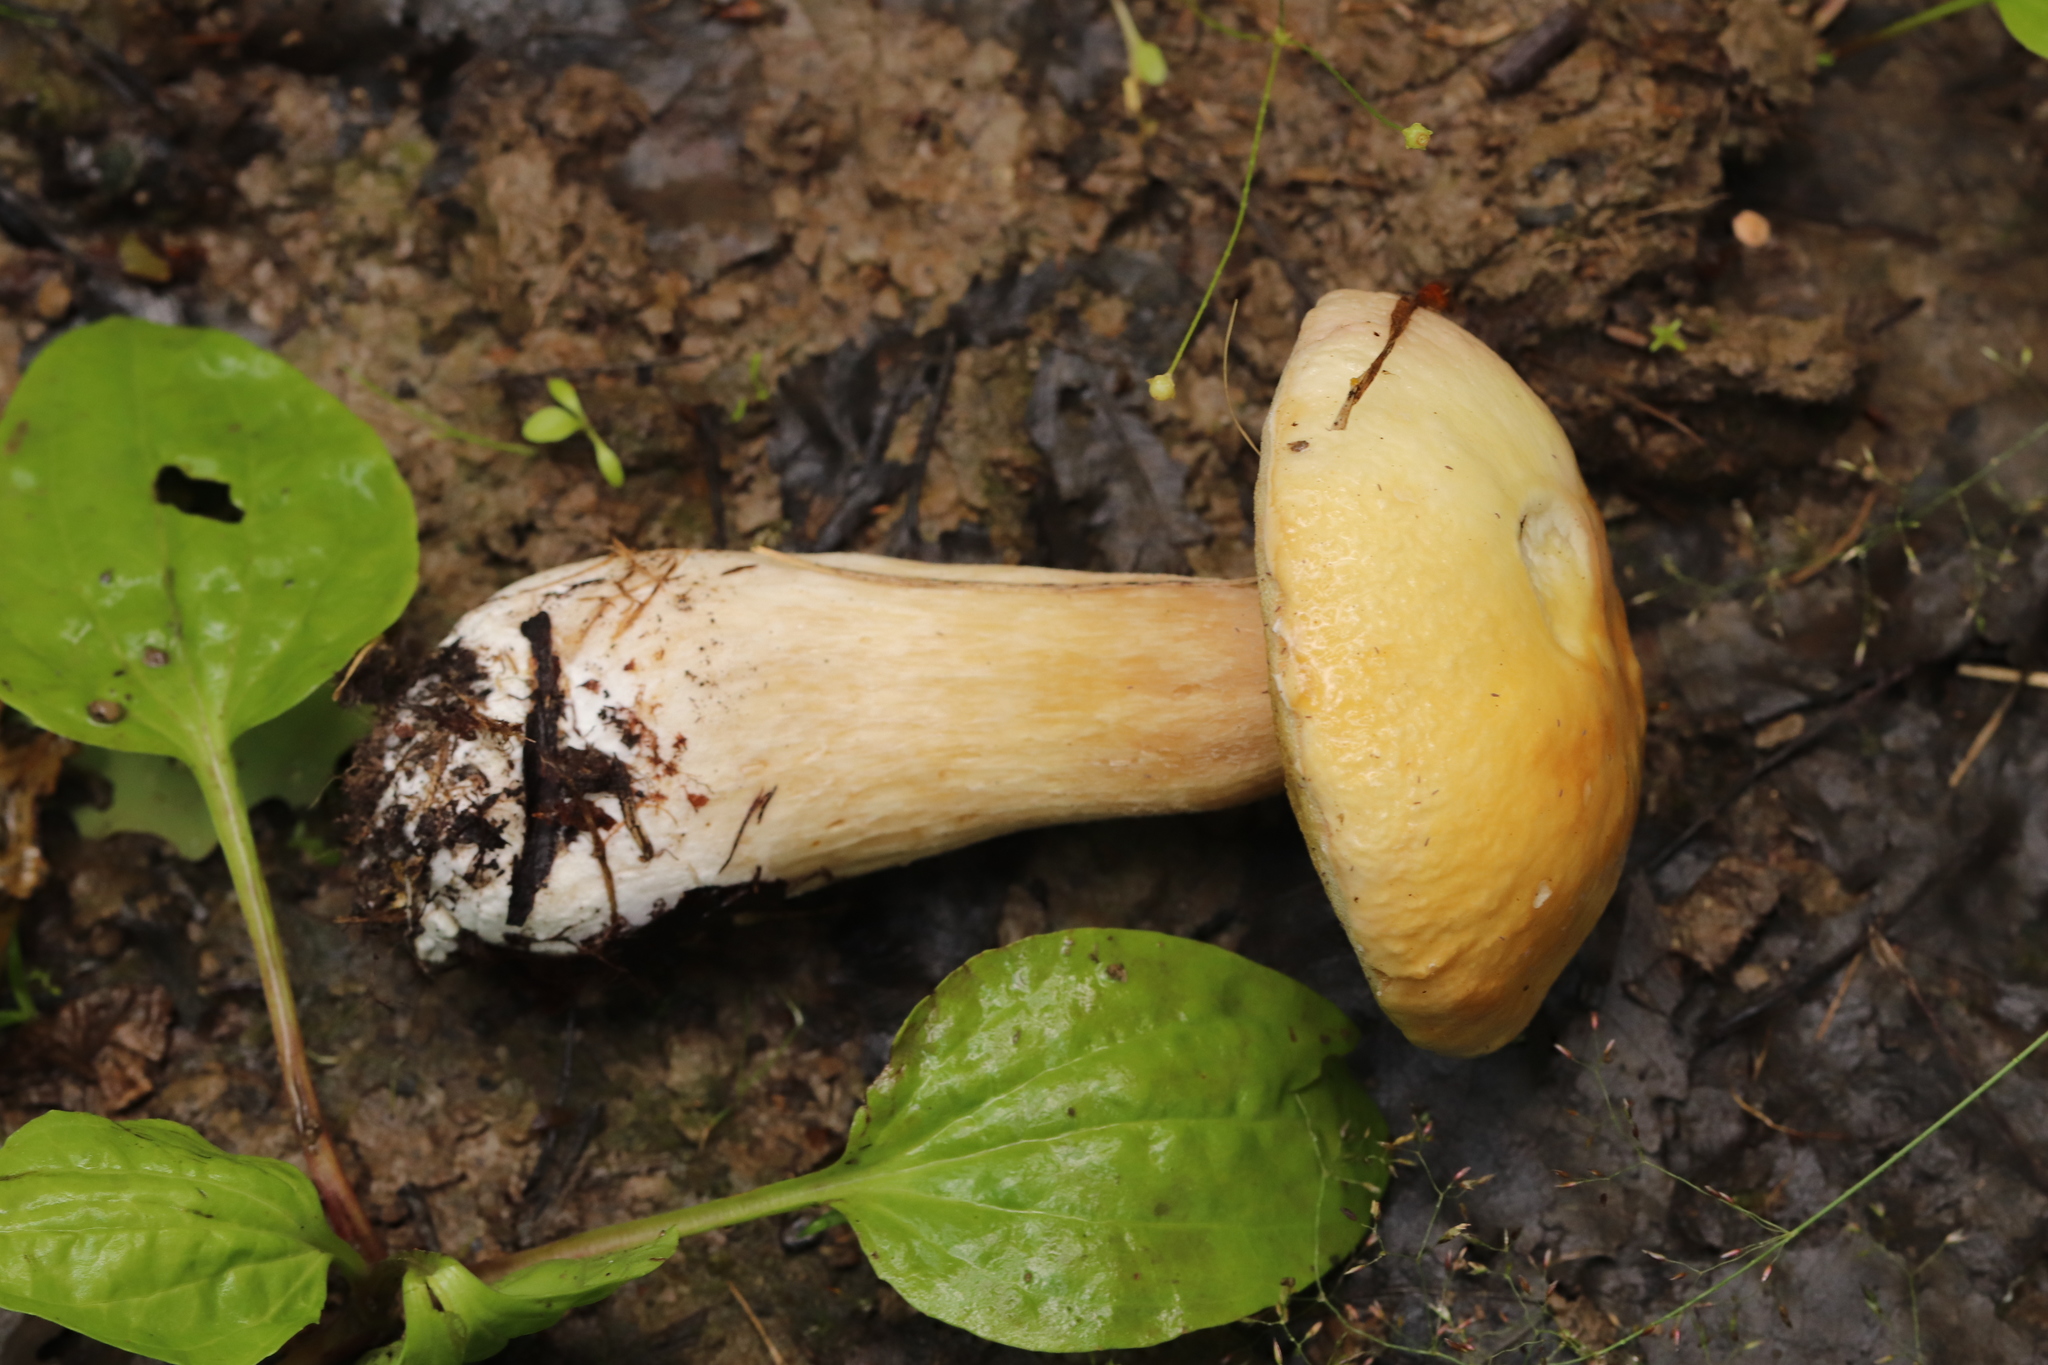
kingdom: Fungi
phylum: Basidiomycota
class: Agaricomycetes
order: Boletales
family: Boletaceae
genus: Boletus
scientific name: Boletus edulis
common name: Cep
